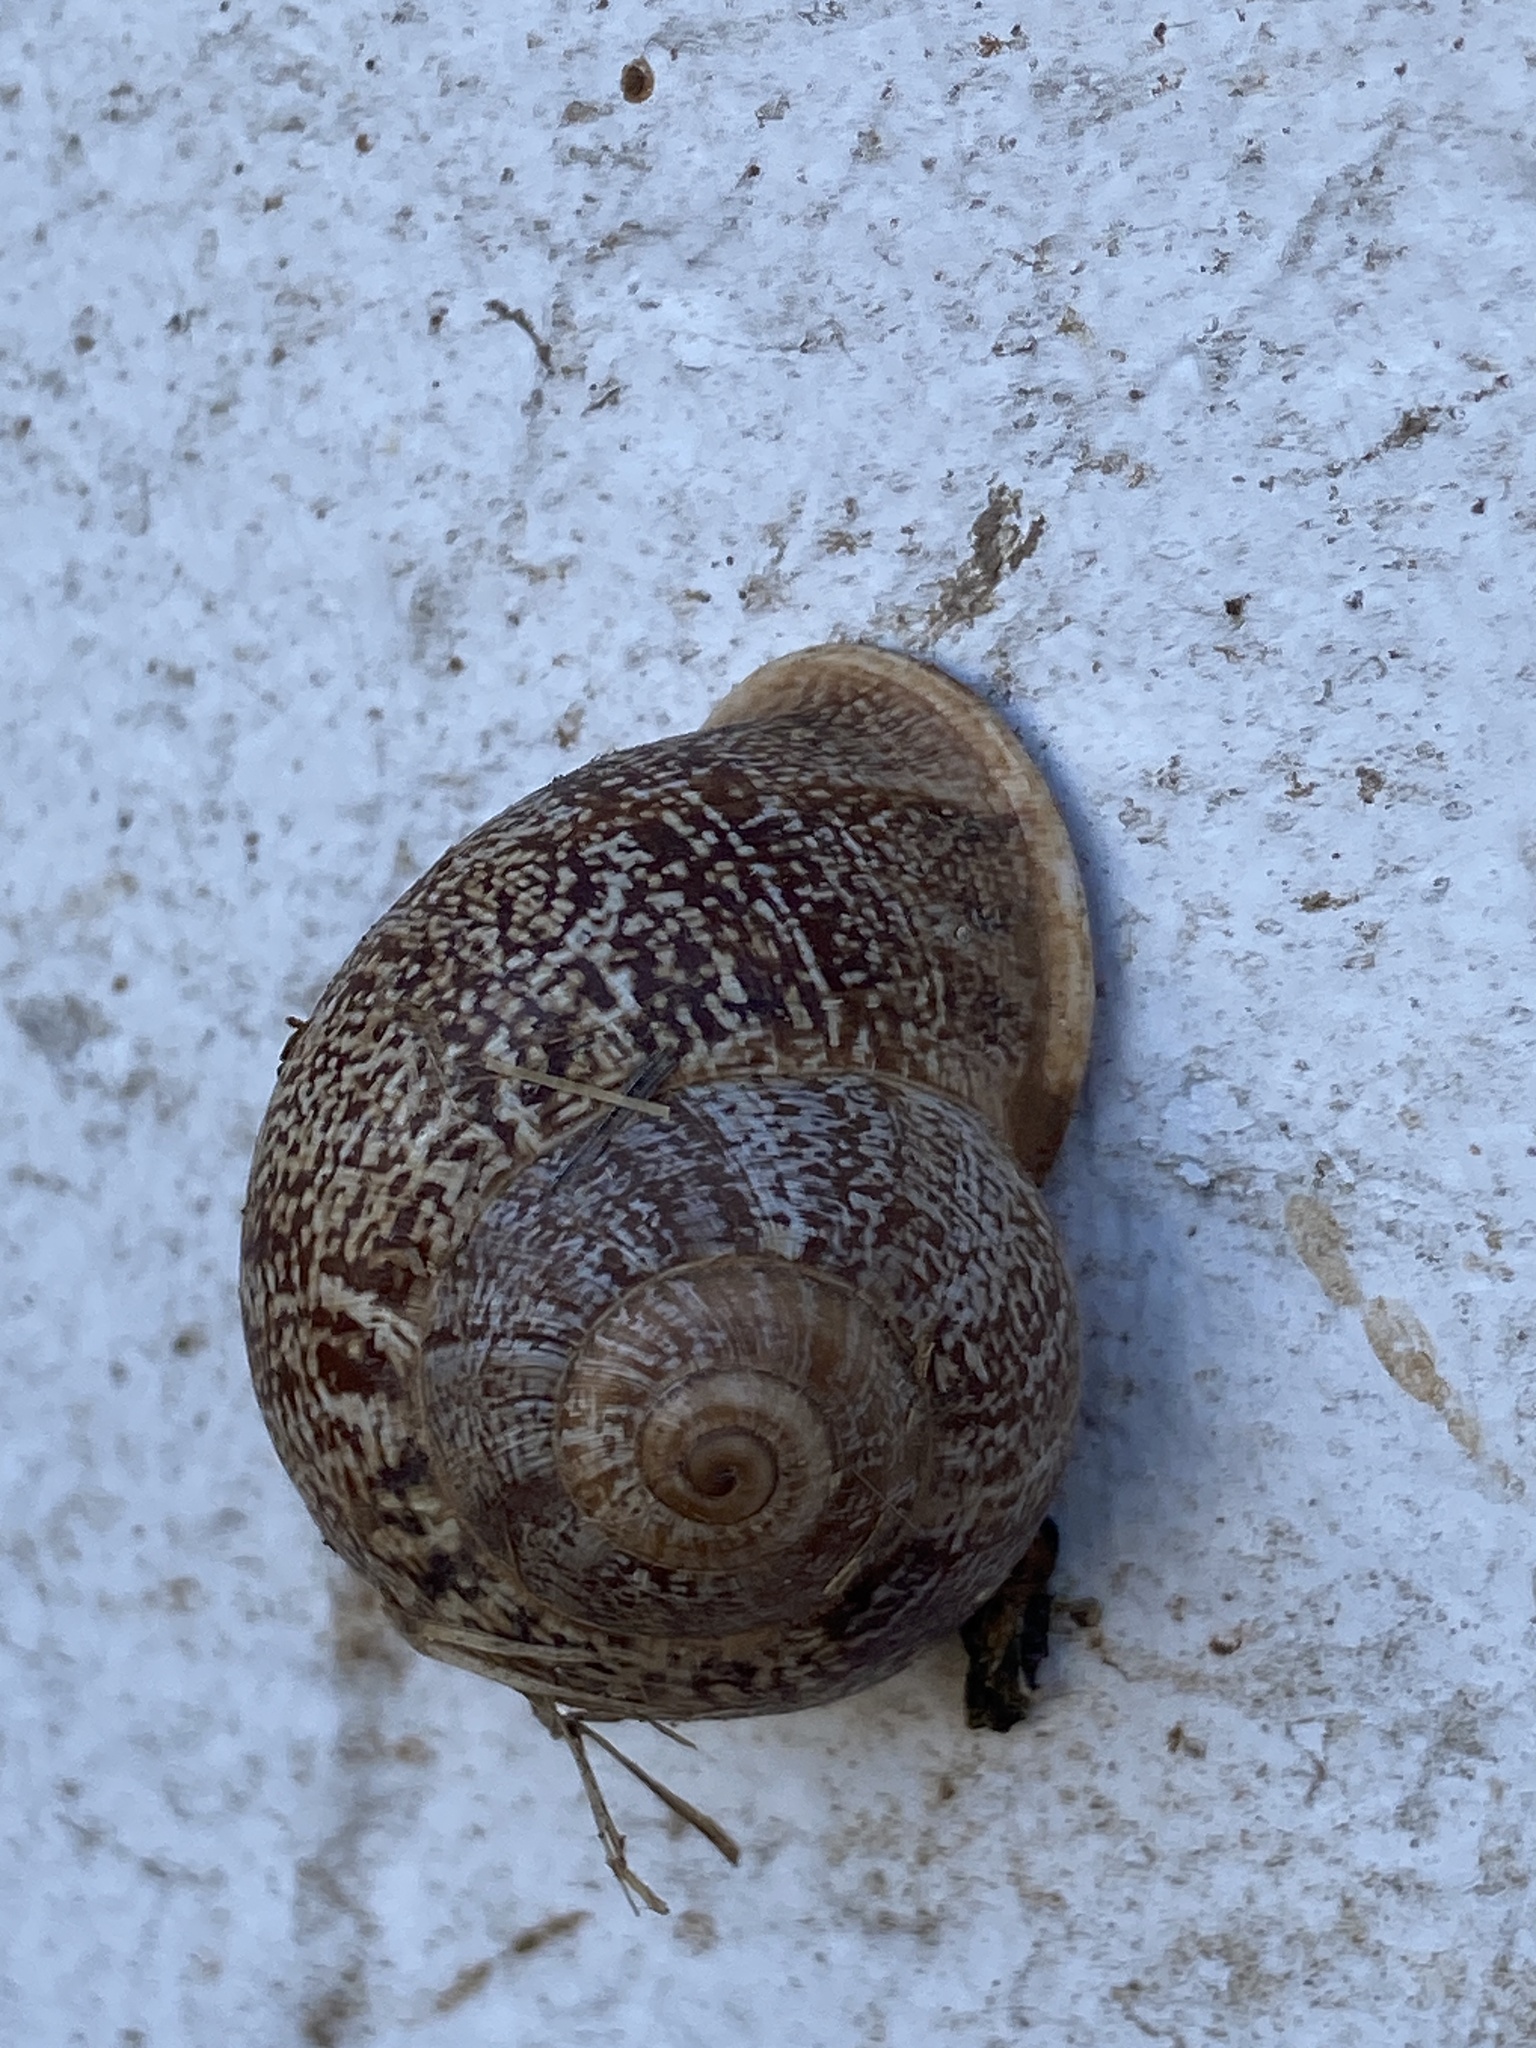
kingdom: Animalia
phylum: Mollusca
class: Gastropoda
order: Stylommatophora
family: Helicidae
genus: Otala
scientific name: Otala lactea
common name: Milk snail
